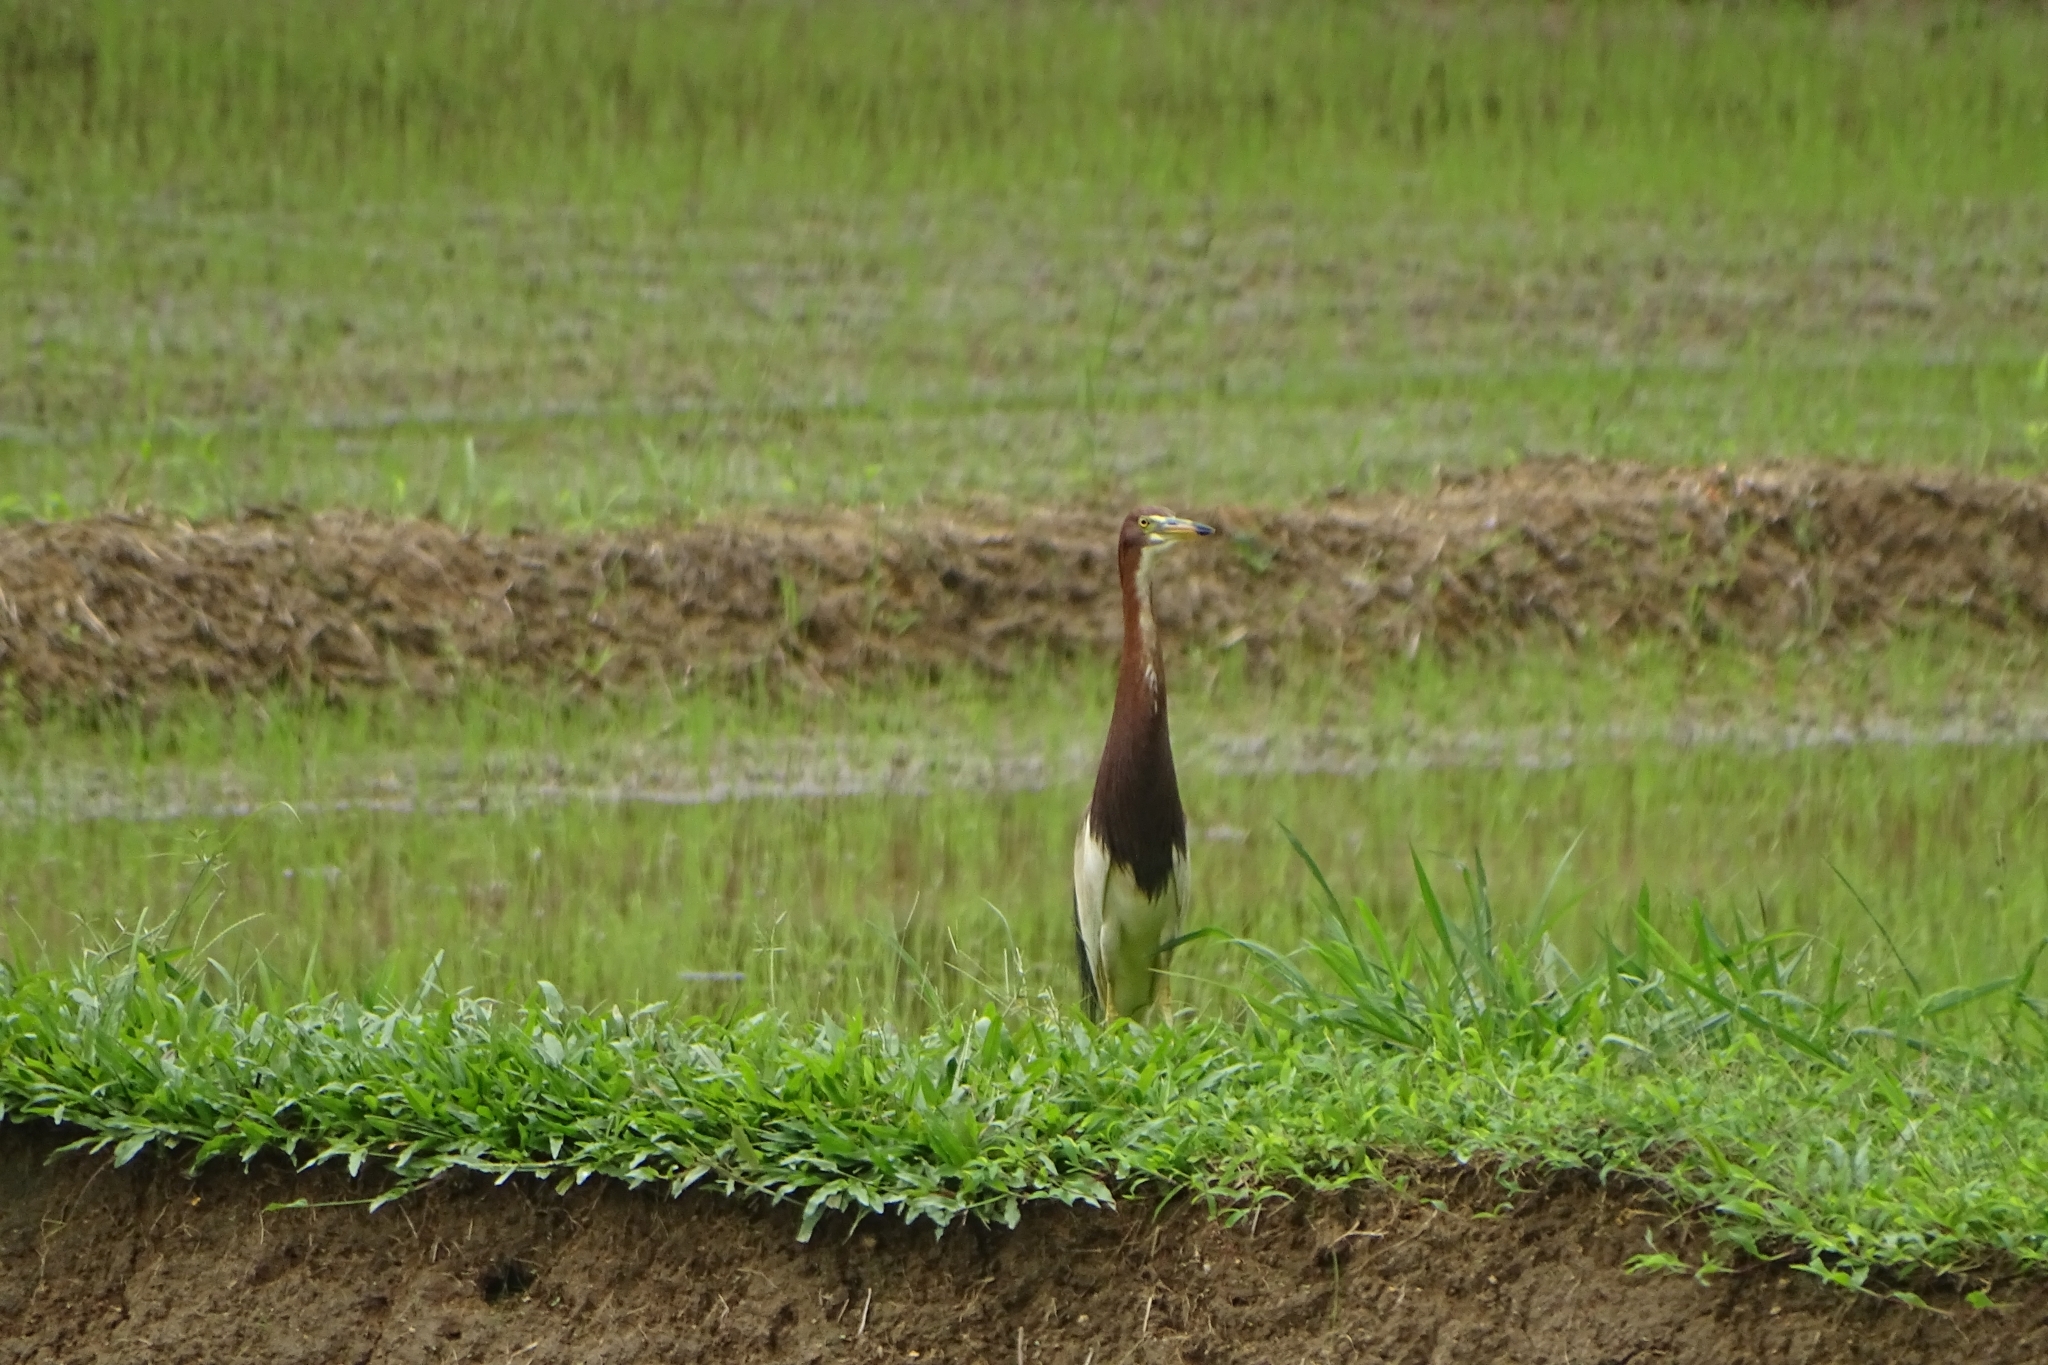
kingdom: Animalia
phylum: Chordata
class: Aves
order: Pelecaniformes
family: Ardeidae
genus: Ardeola
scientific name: Ardeola bacchus
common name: Chinese pond heron
